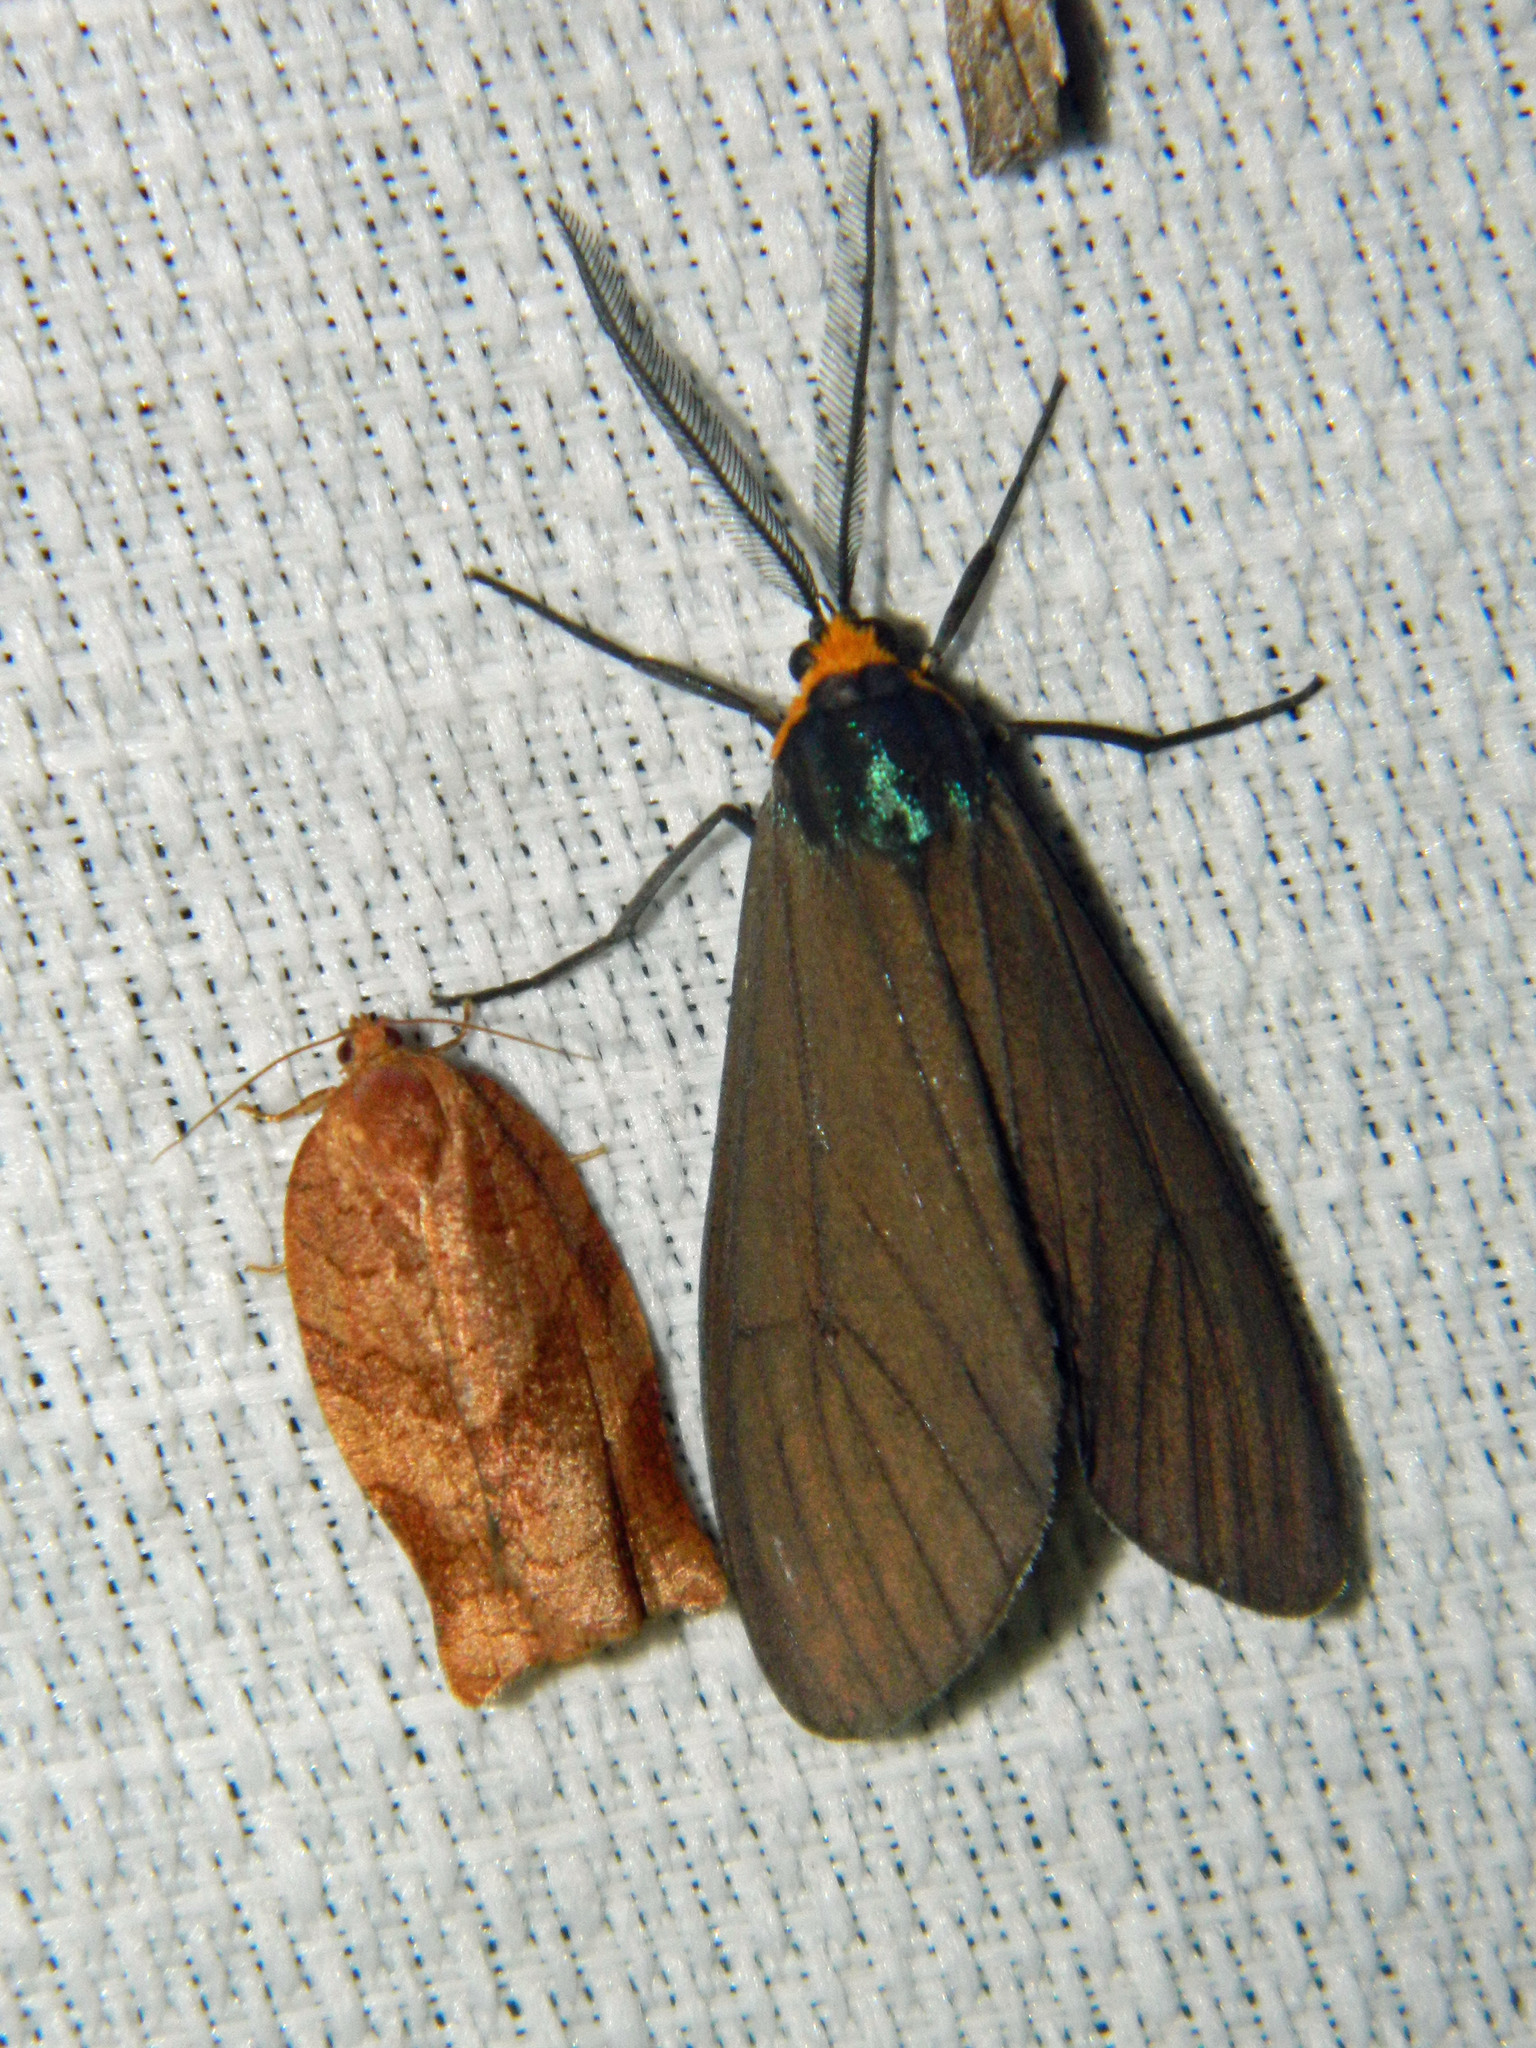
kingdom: Animalia
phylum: Arthropoda
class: Insecta
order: Lepidoptera
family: Erebidae
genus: Ctenucha
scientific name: Ctenucha virginica
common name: Virginia ctenucha moth
